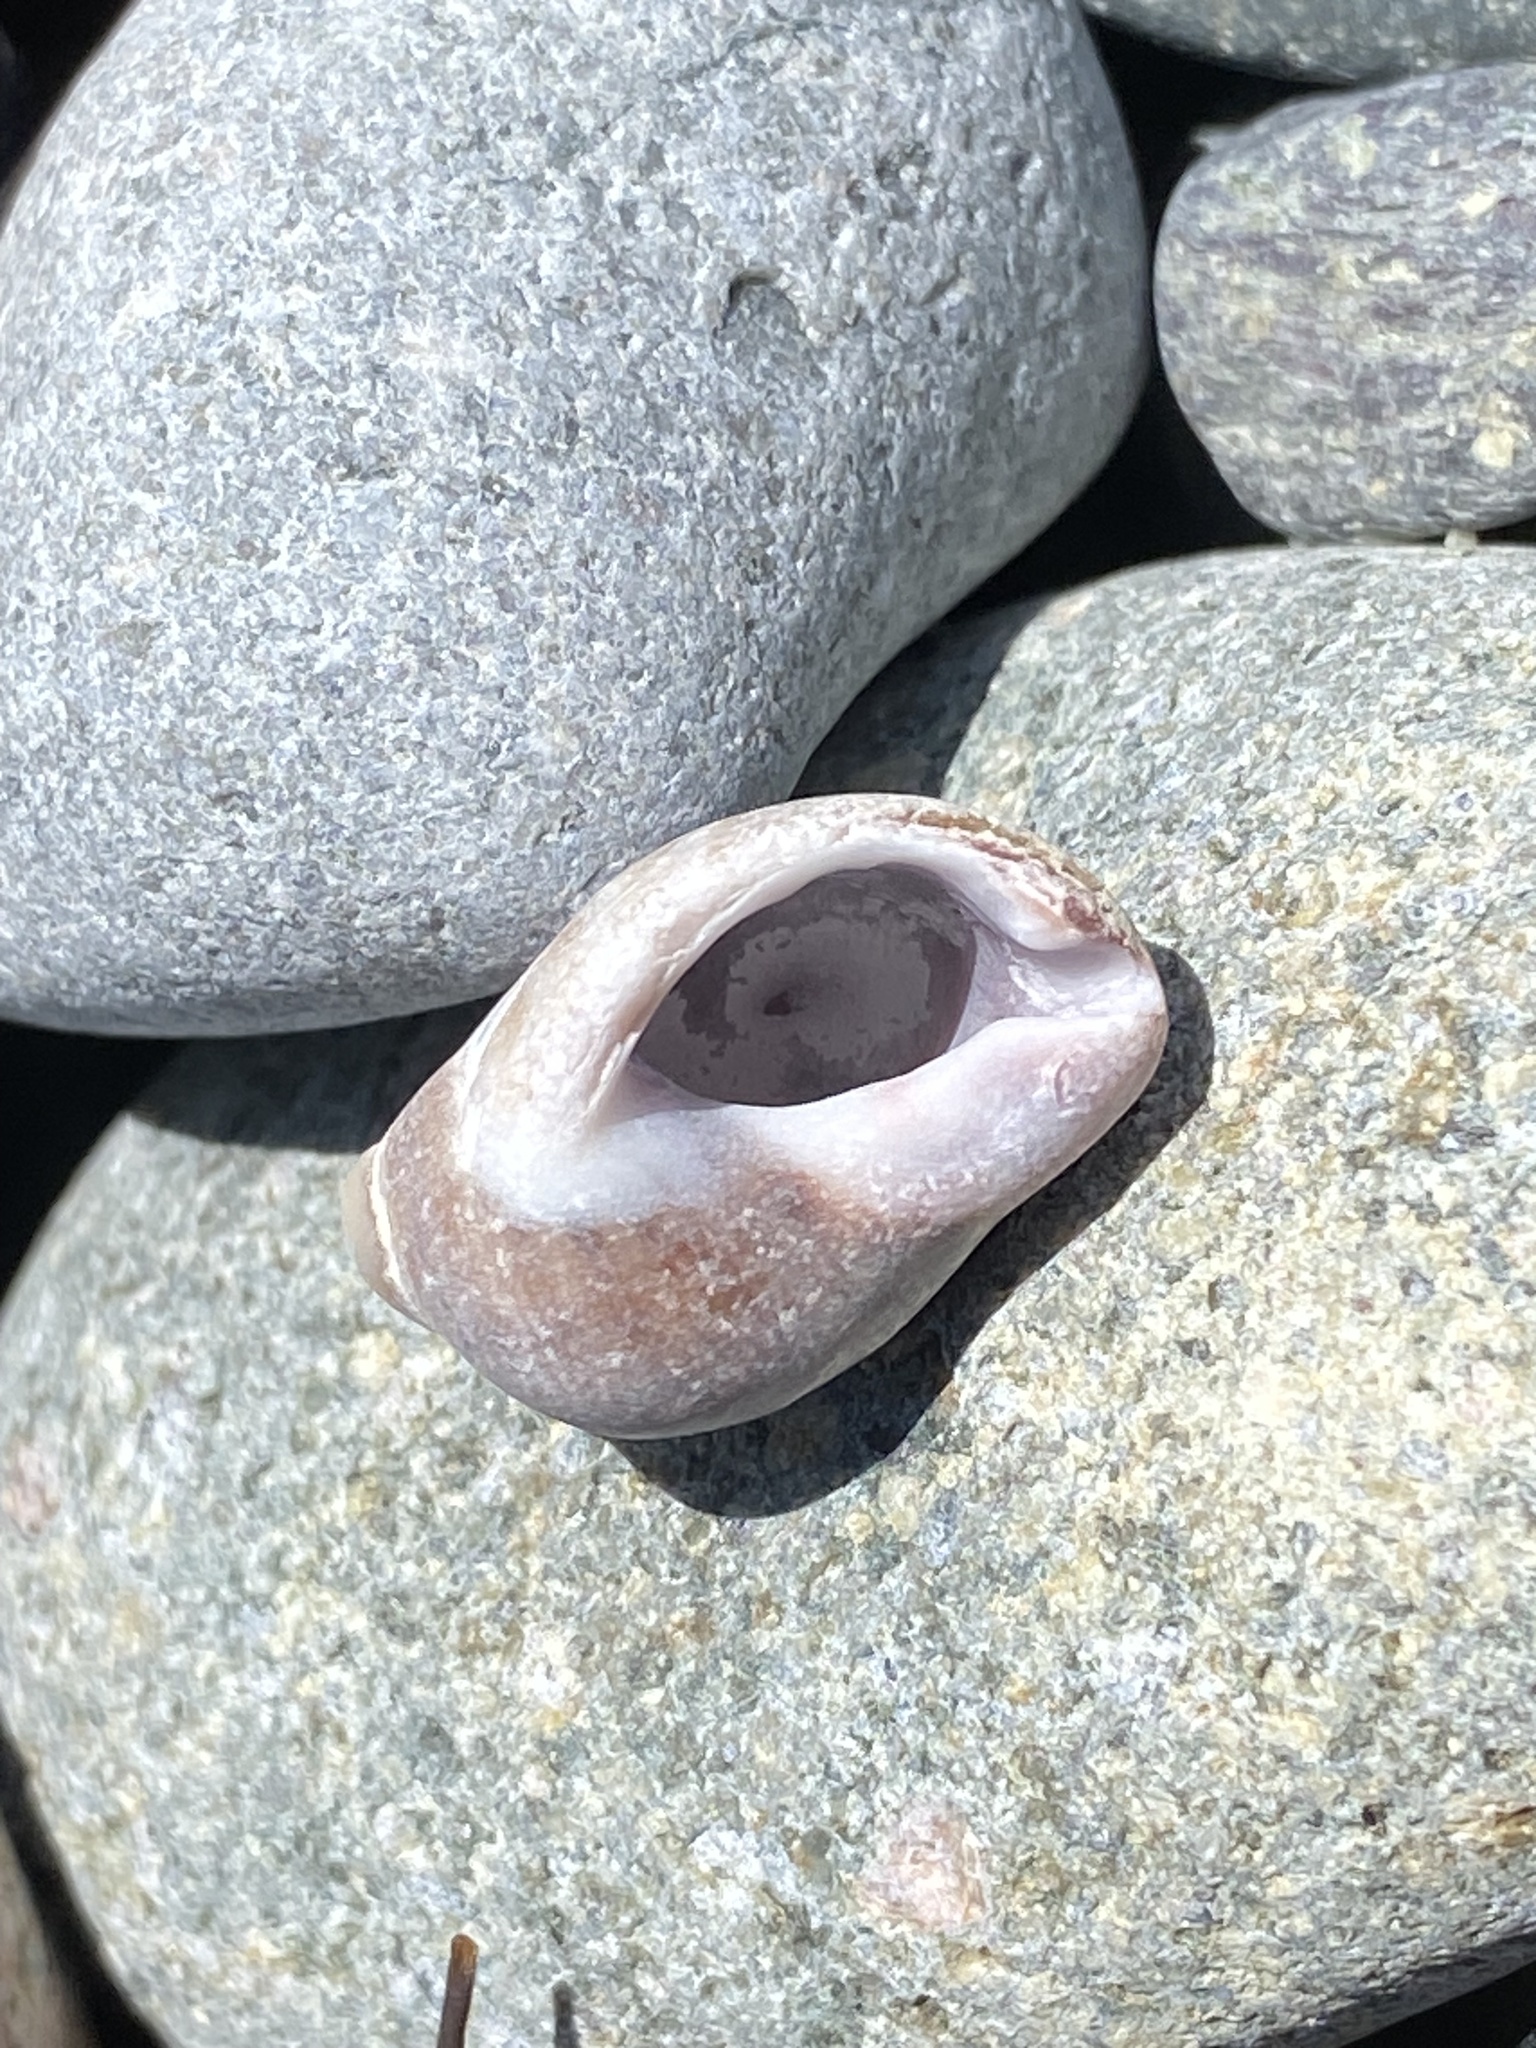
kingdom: Animalia
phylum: Mollusca
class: Gastropoda
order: Neogastropoda
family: Muricidae
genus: Nucella
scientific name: Nucella lapillus
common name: Dog whelk
